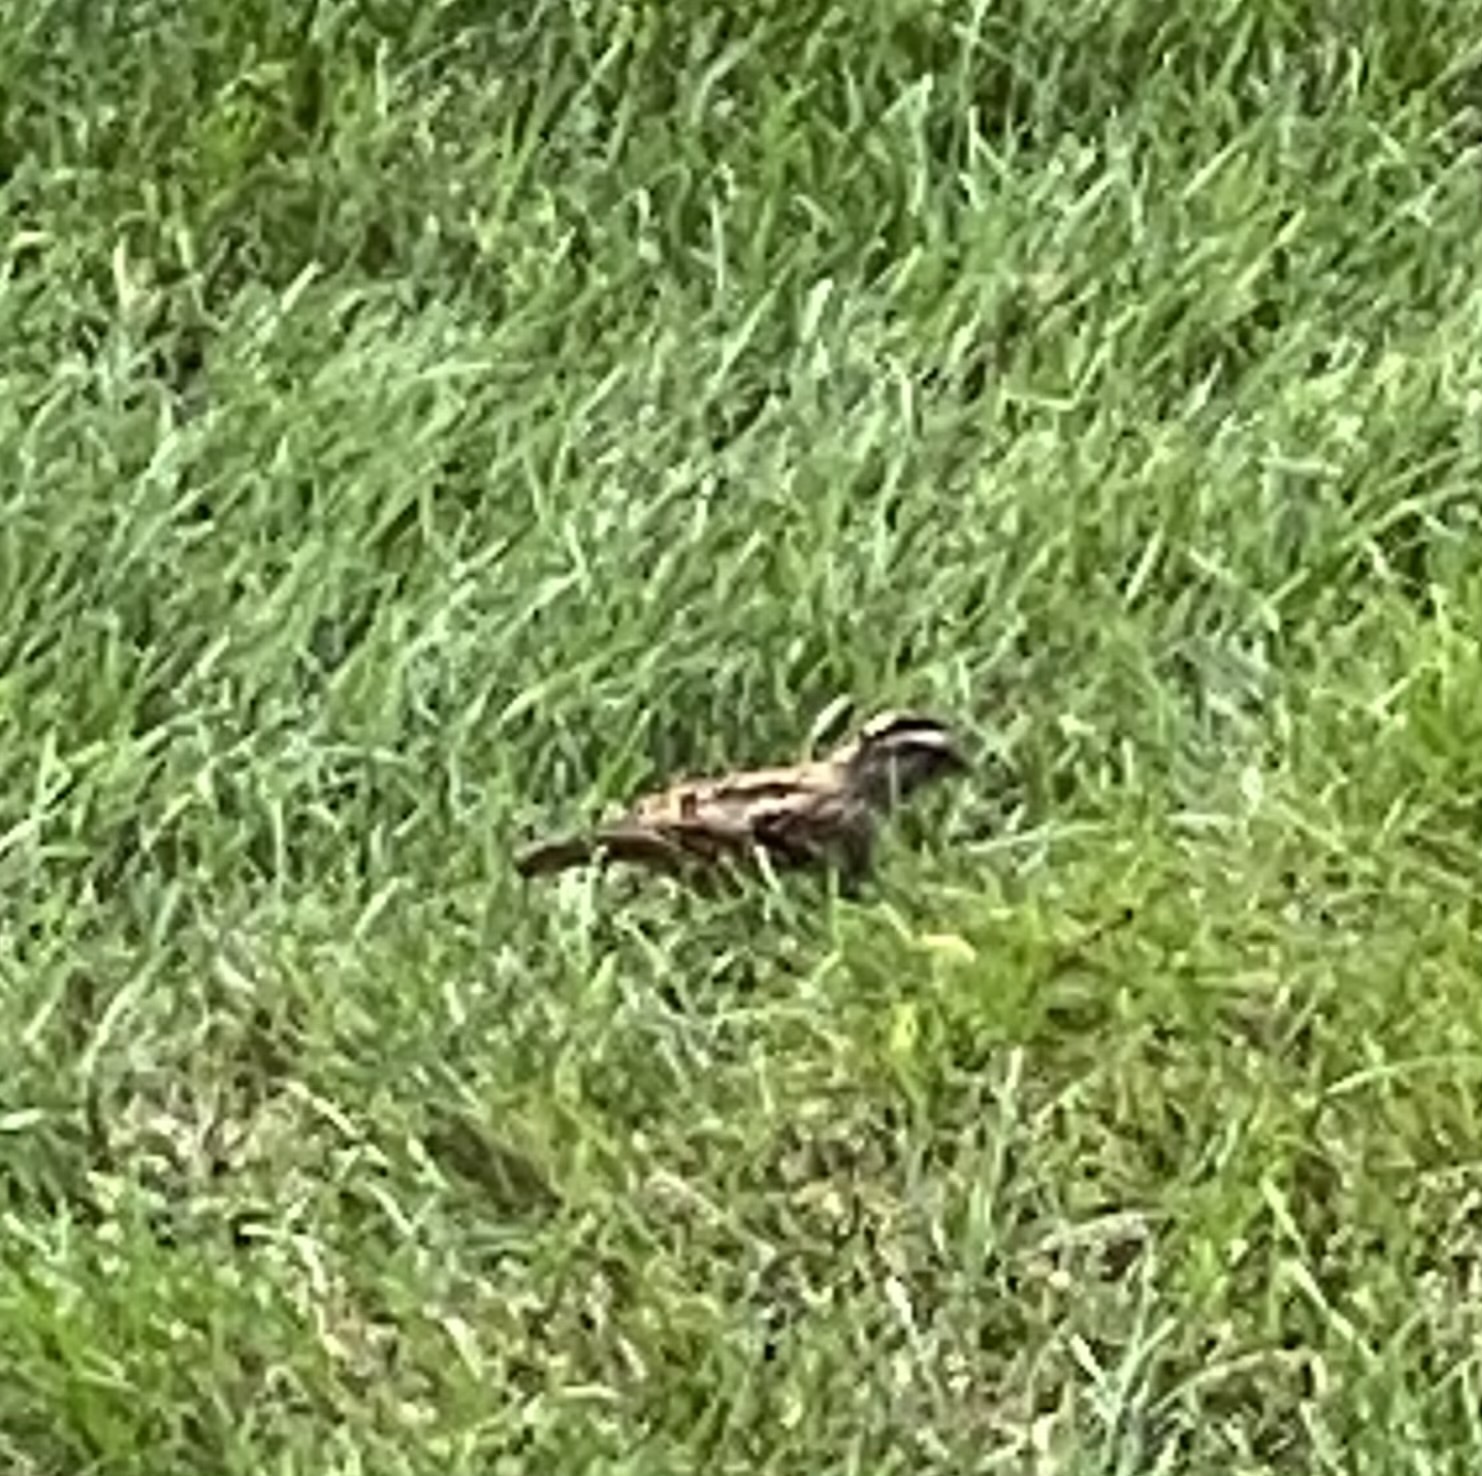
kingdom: Animalia
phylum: Chordata
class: Aves
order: Passeriformes
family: Passerellidae
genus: Zonotrichia
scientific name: Zonotrichia albicollis
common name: White-throated sparrow
